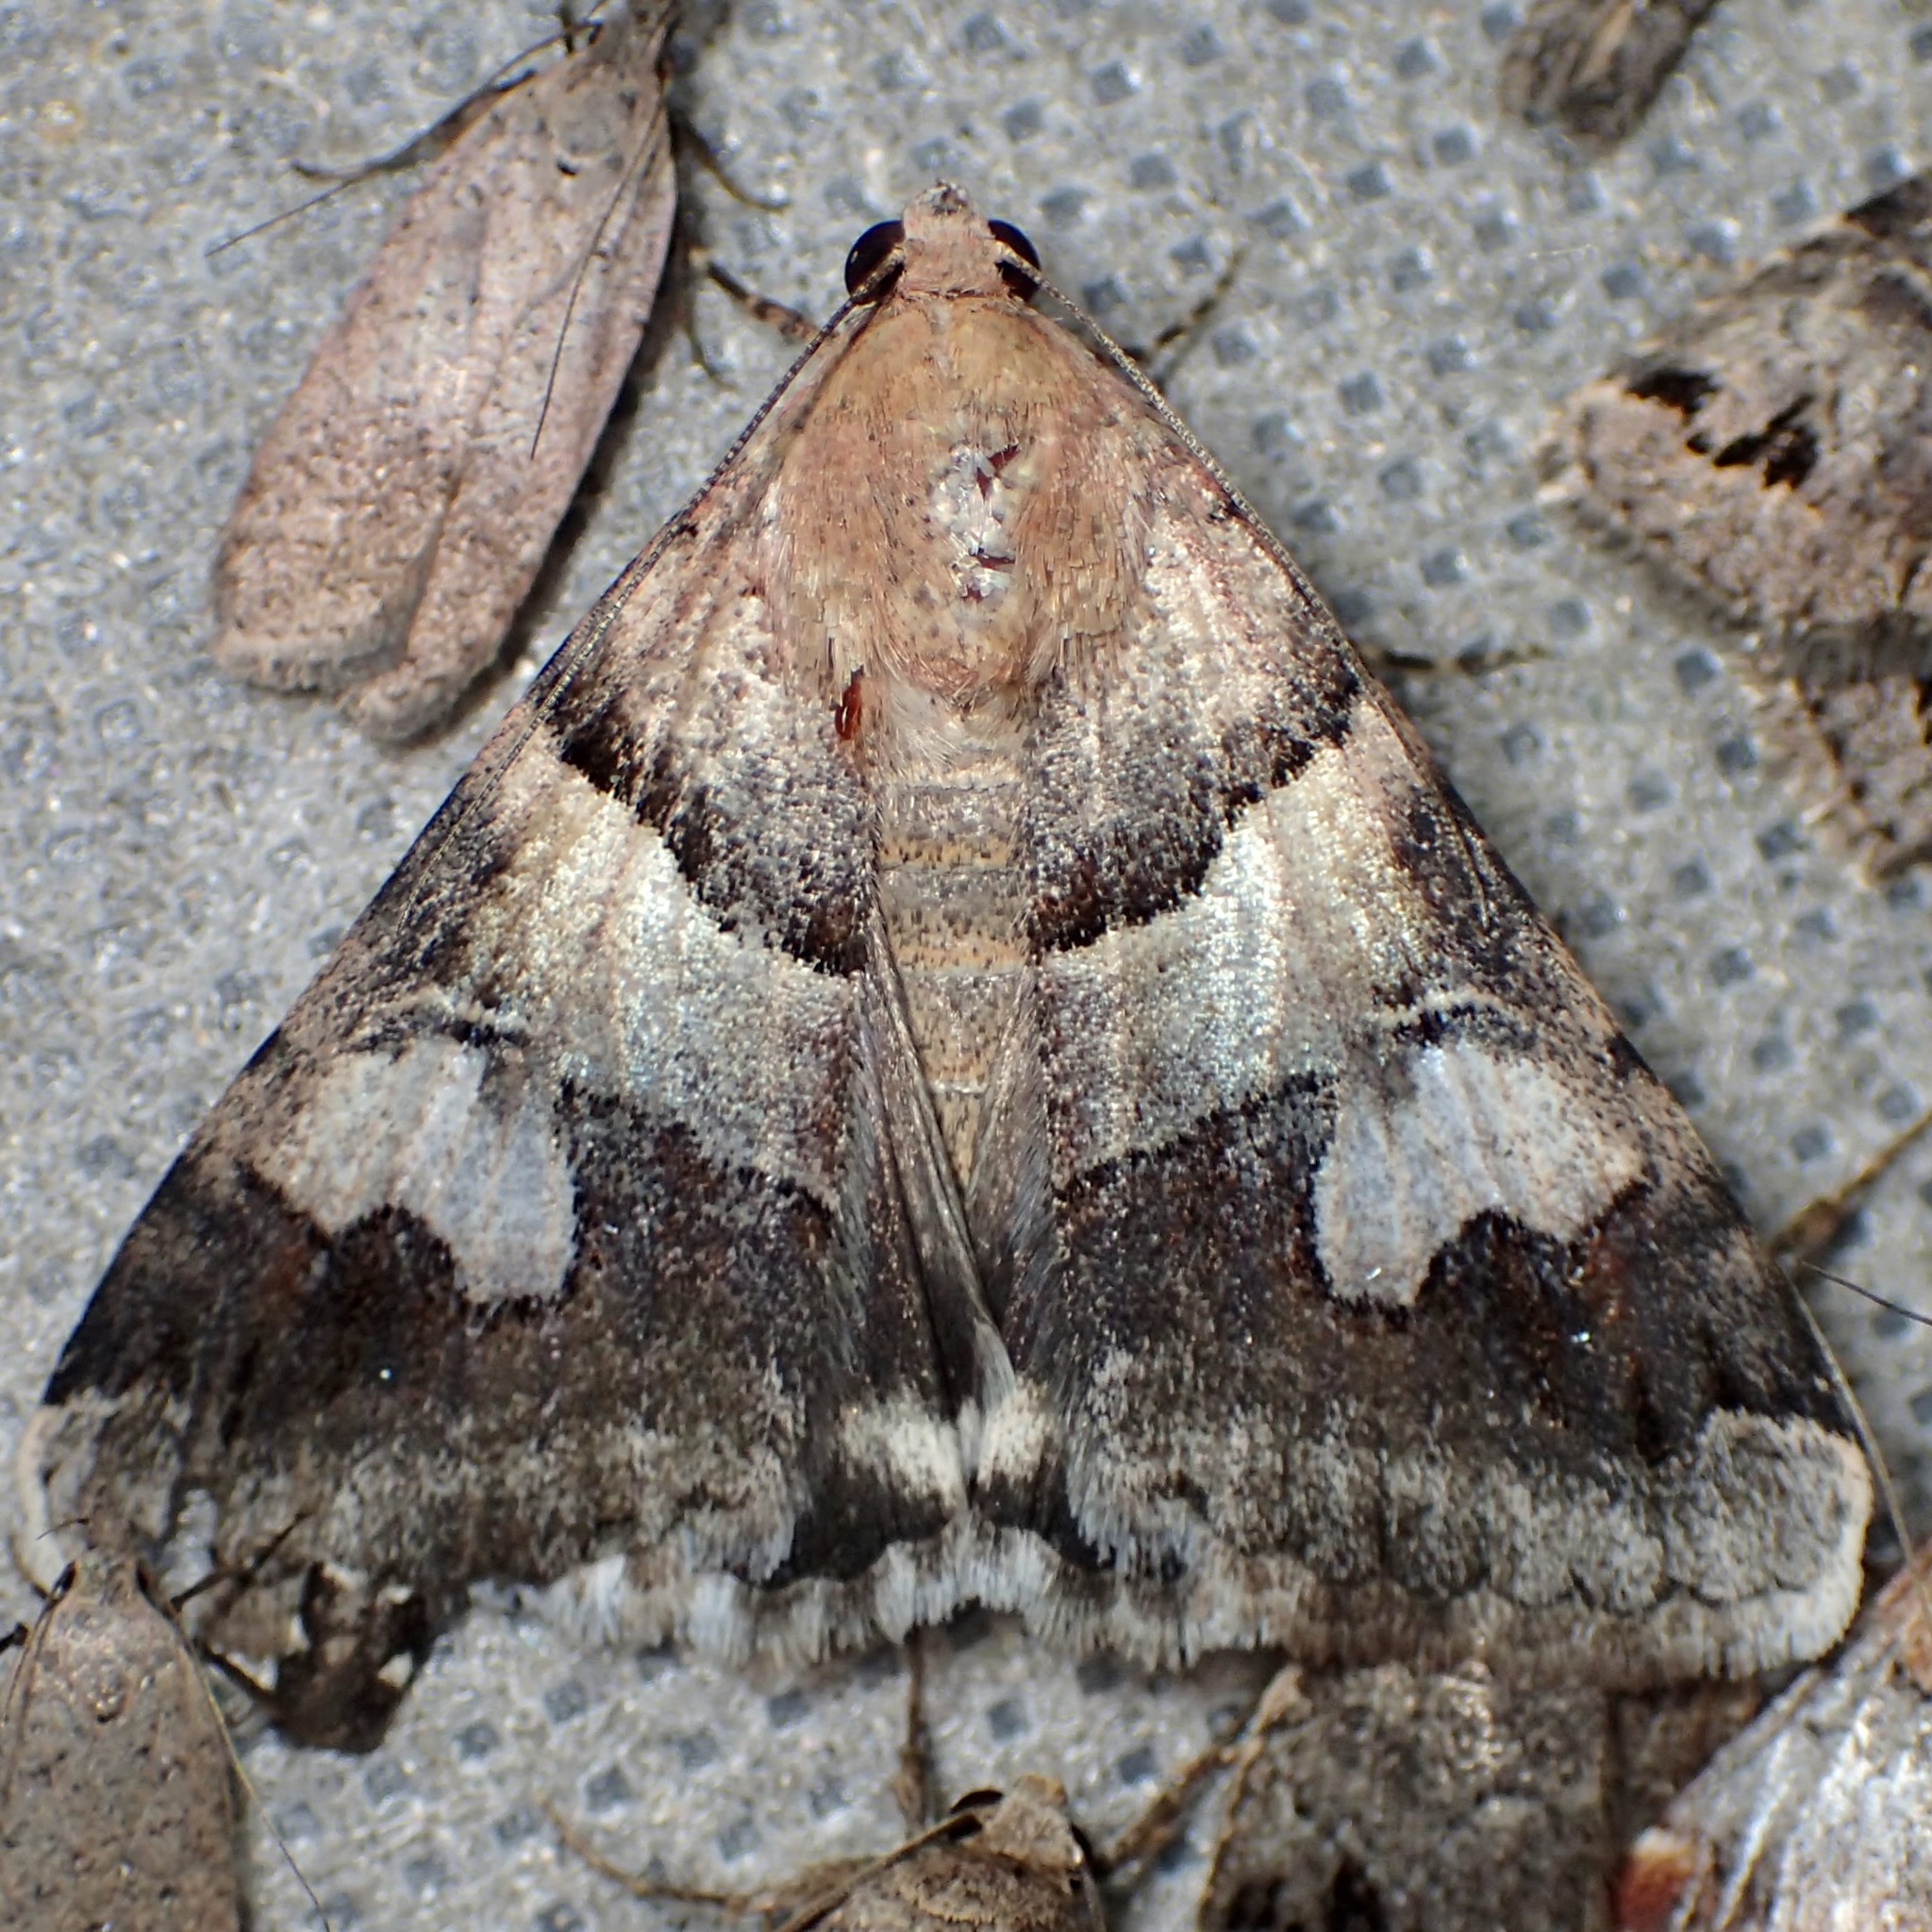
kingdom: Animalia
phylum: Arthropoda
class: Insecta
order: Lepidoptera
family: Erebidae
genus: Drasteria
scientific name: Drasteria pallescens
